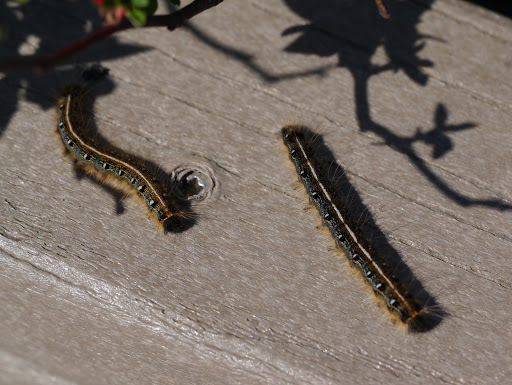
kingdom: Animalia
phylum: Arthropoda
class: Insecta
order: Lepidoptera
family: Lasiocampidae
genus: Malacosoma
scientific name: Malacosoma americana
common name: Eastern tent caterpillar moth
